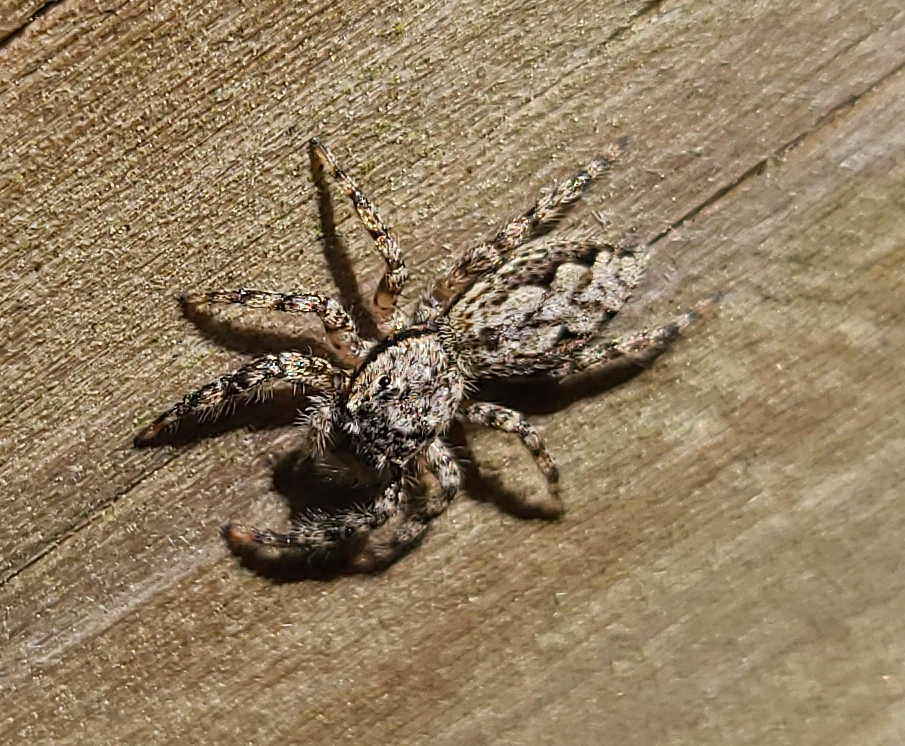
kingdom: Animalia
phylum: Arthropoda
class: Arachnida
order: Araneae
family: Salticidae
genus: Platycryptus
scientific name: Platycryptus undatus
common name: Tan jumping spider
